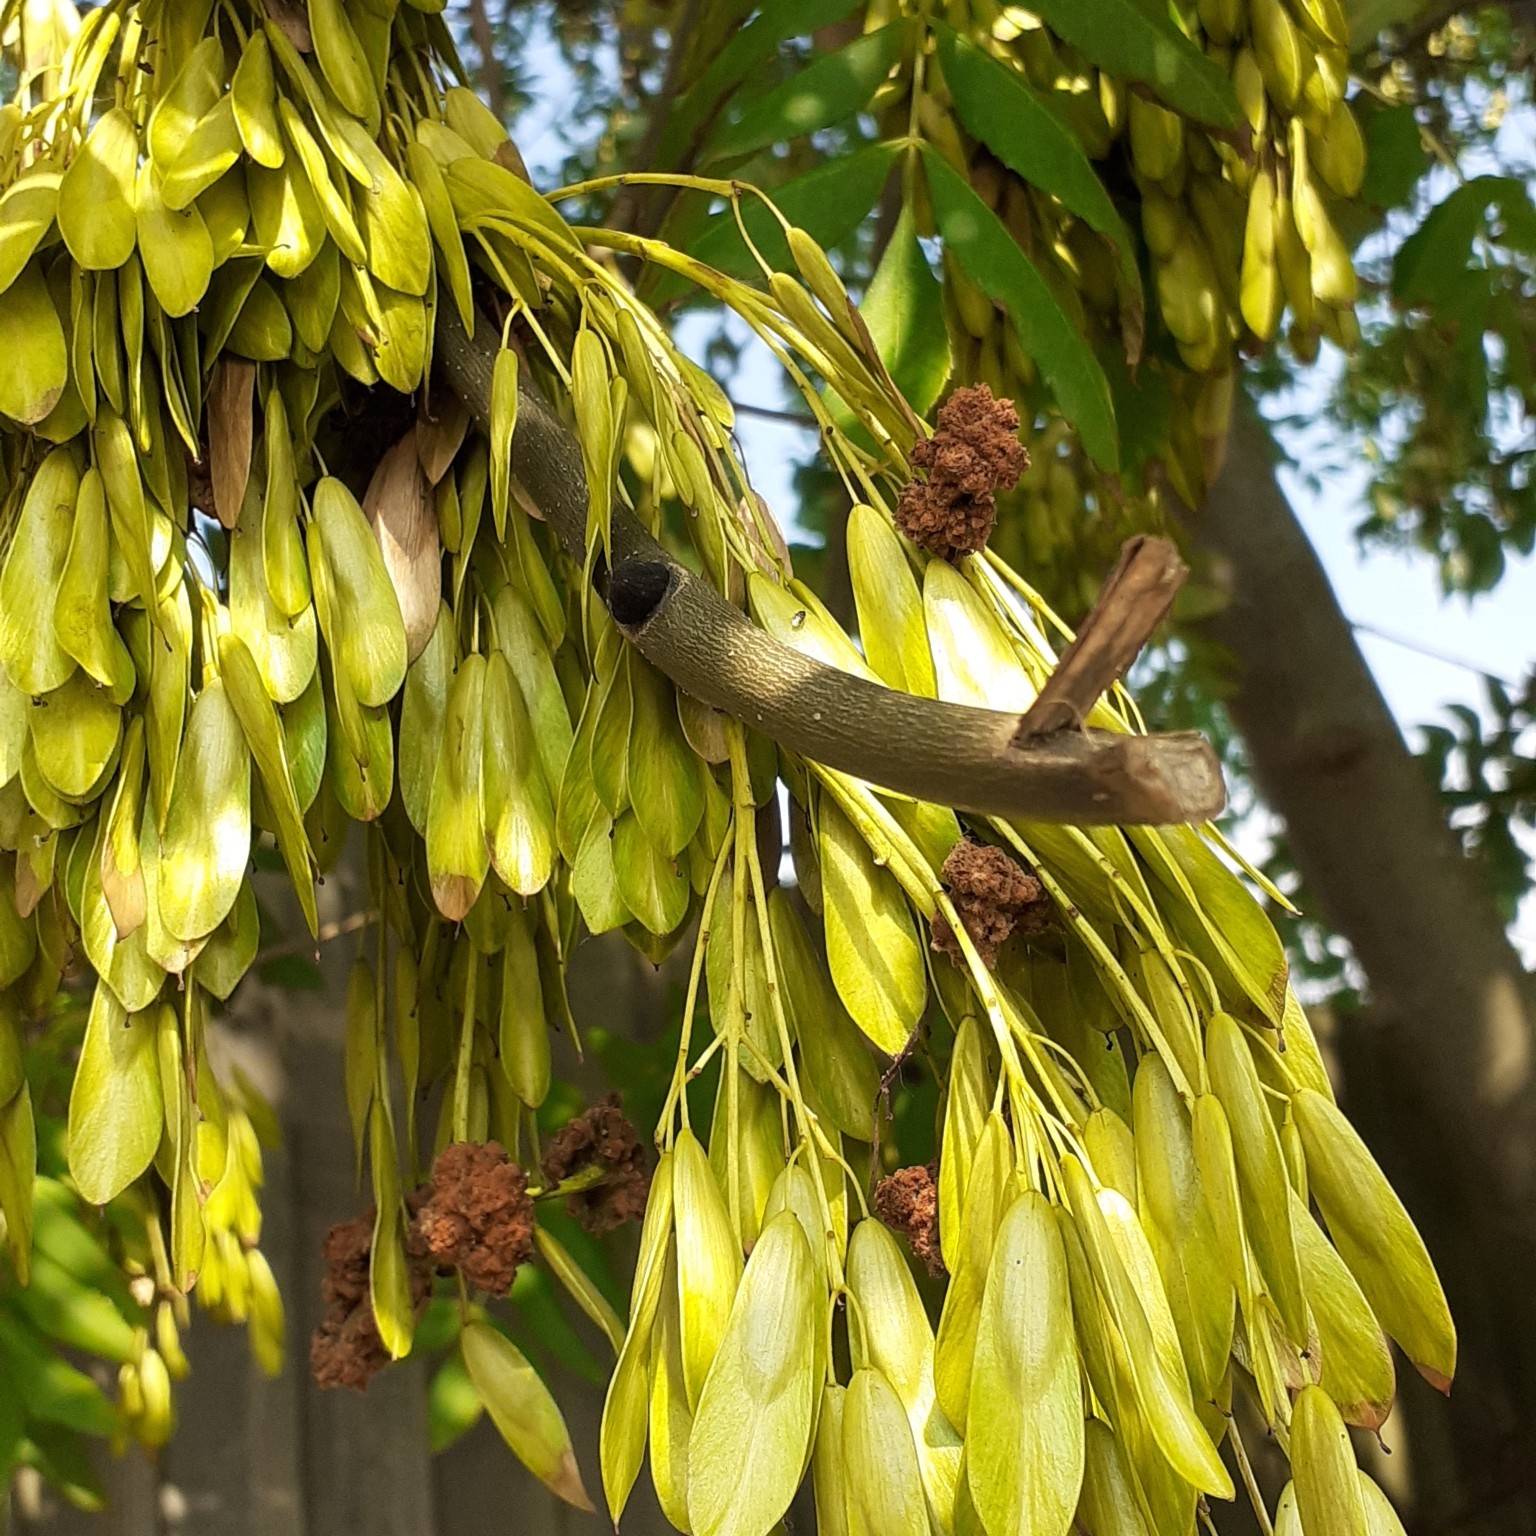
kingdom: Animalia
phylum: Arthropoda
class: Arachnida
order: Trombidiformes
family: Eriophyidae
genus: Aceria
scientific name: Aceria fraxinivora
